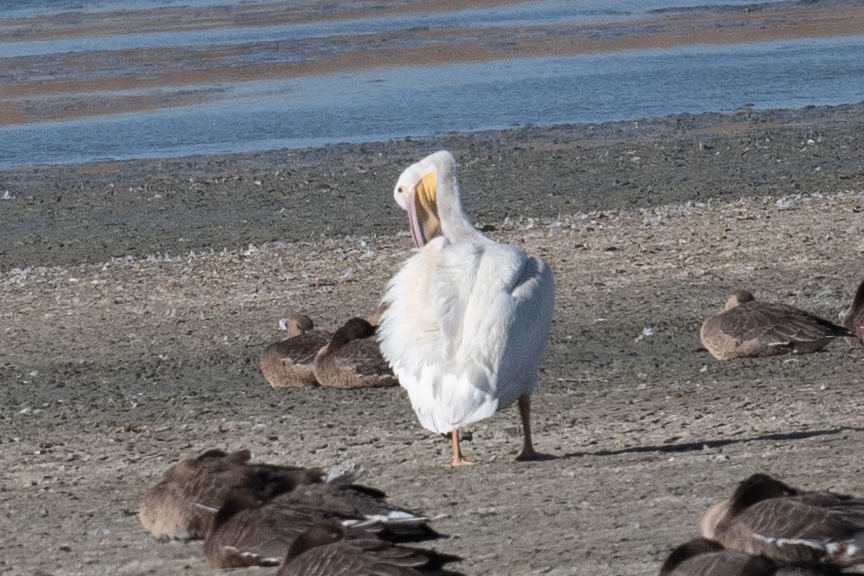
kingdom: Animalia
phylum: Chordata
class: Aves
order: Pelecaniformes
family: Pelecanidae
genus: Pelecanus
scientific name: Pelecanus erythrorhynchos
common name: American white pelican
